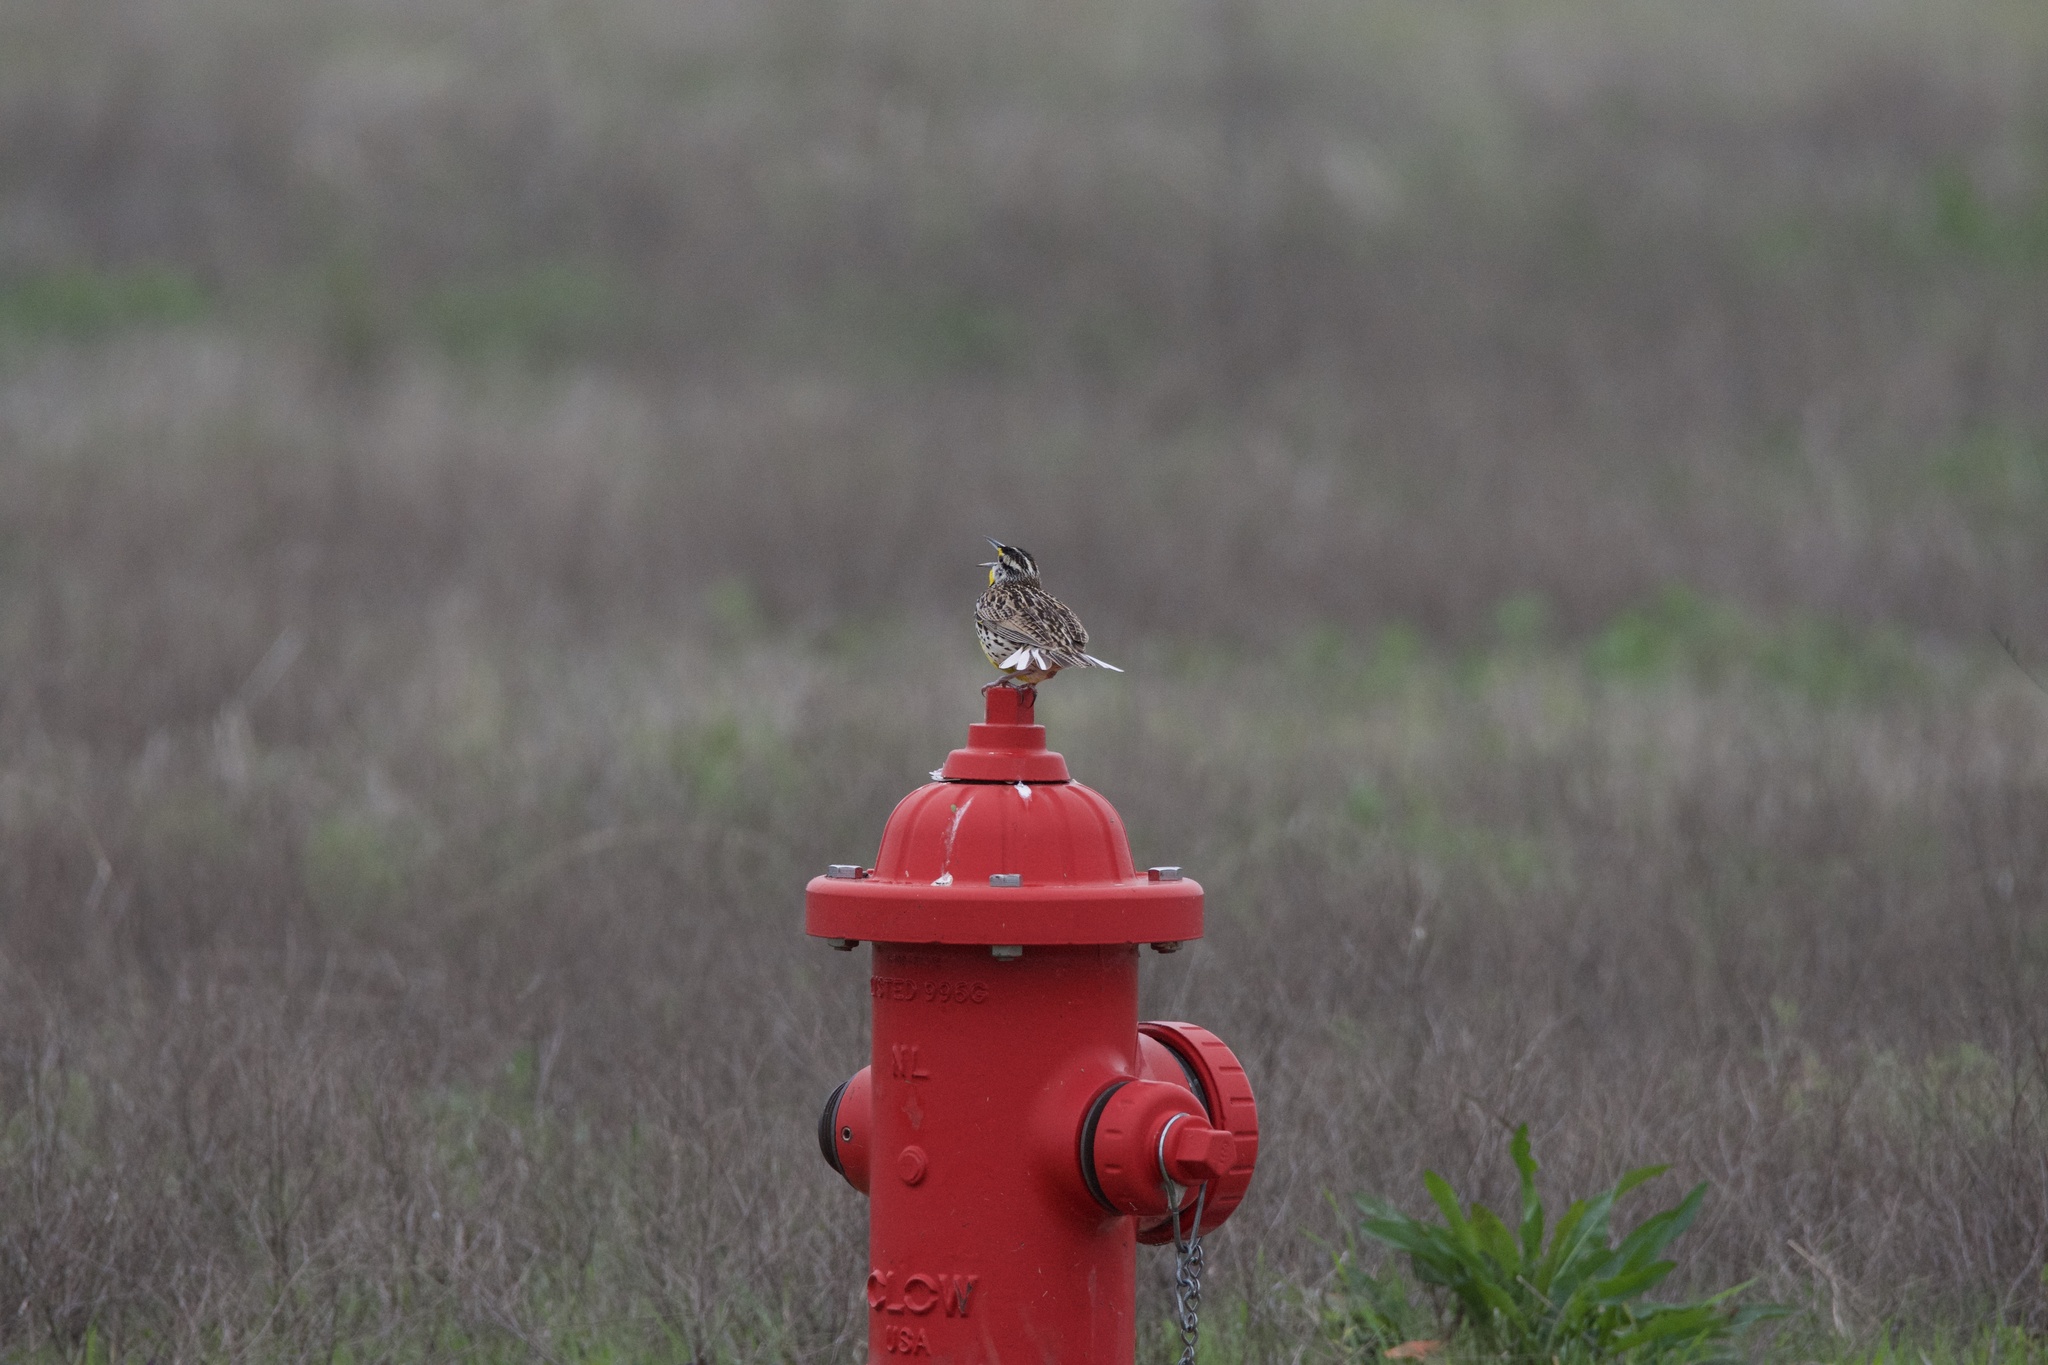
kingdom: Animalia
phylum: Chordata
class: Aves
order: Passeriformes
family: Icteridae
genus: Sturnella
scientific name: Sturnella magna
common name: Eastern meadowlark
